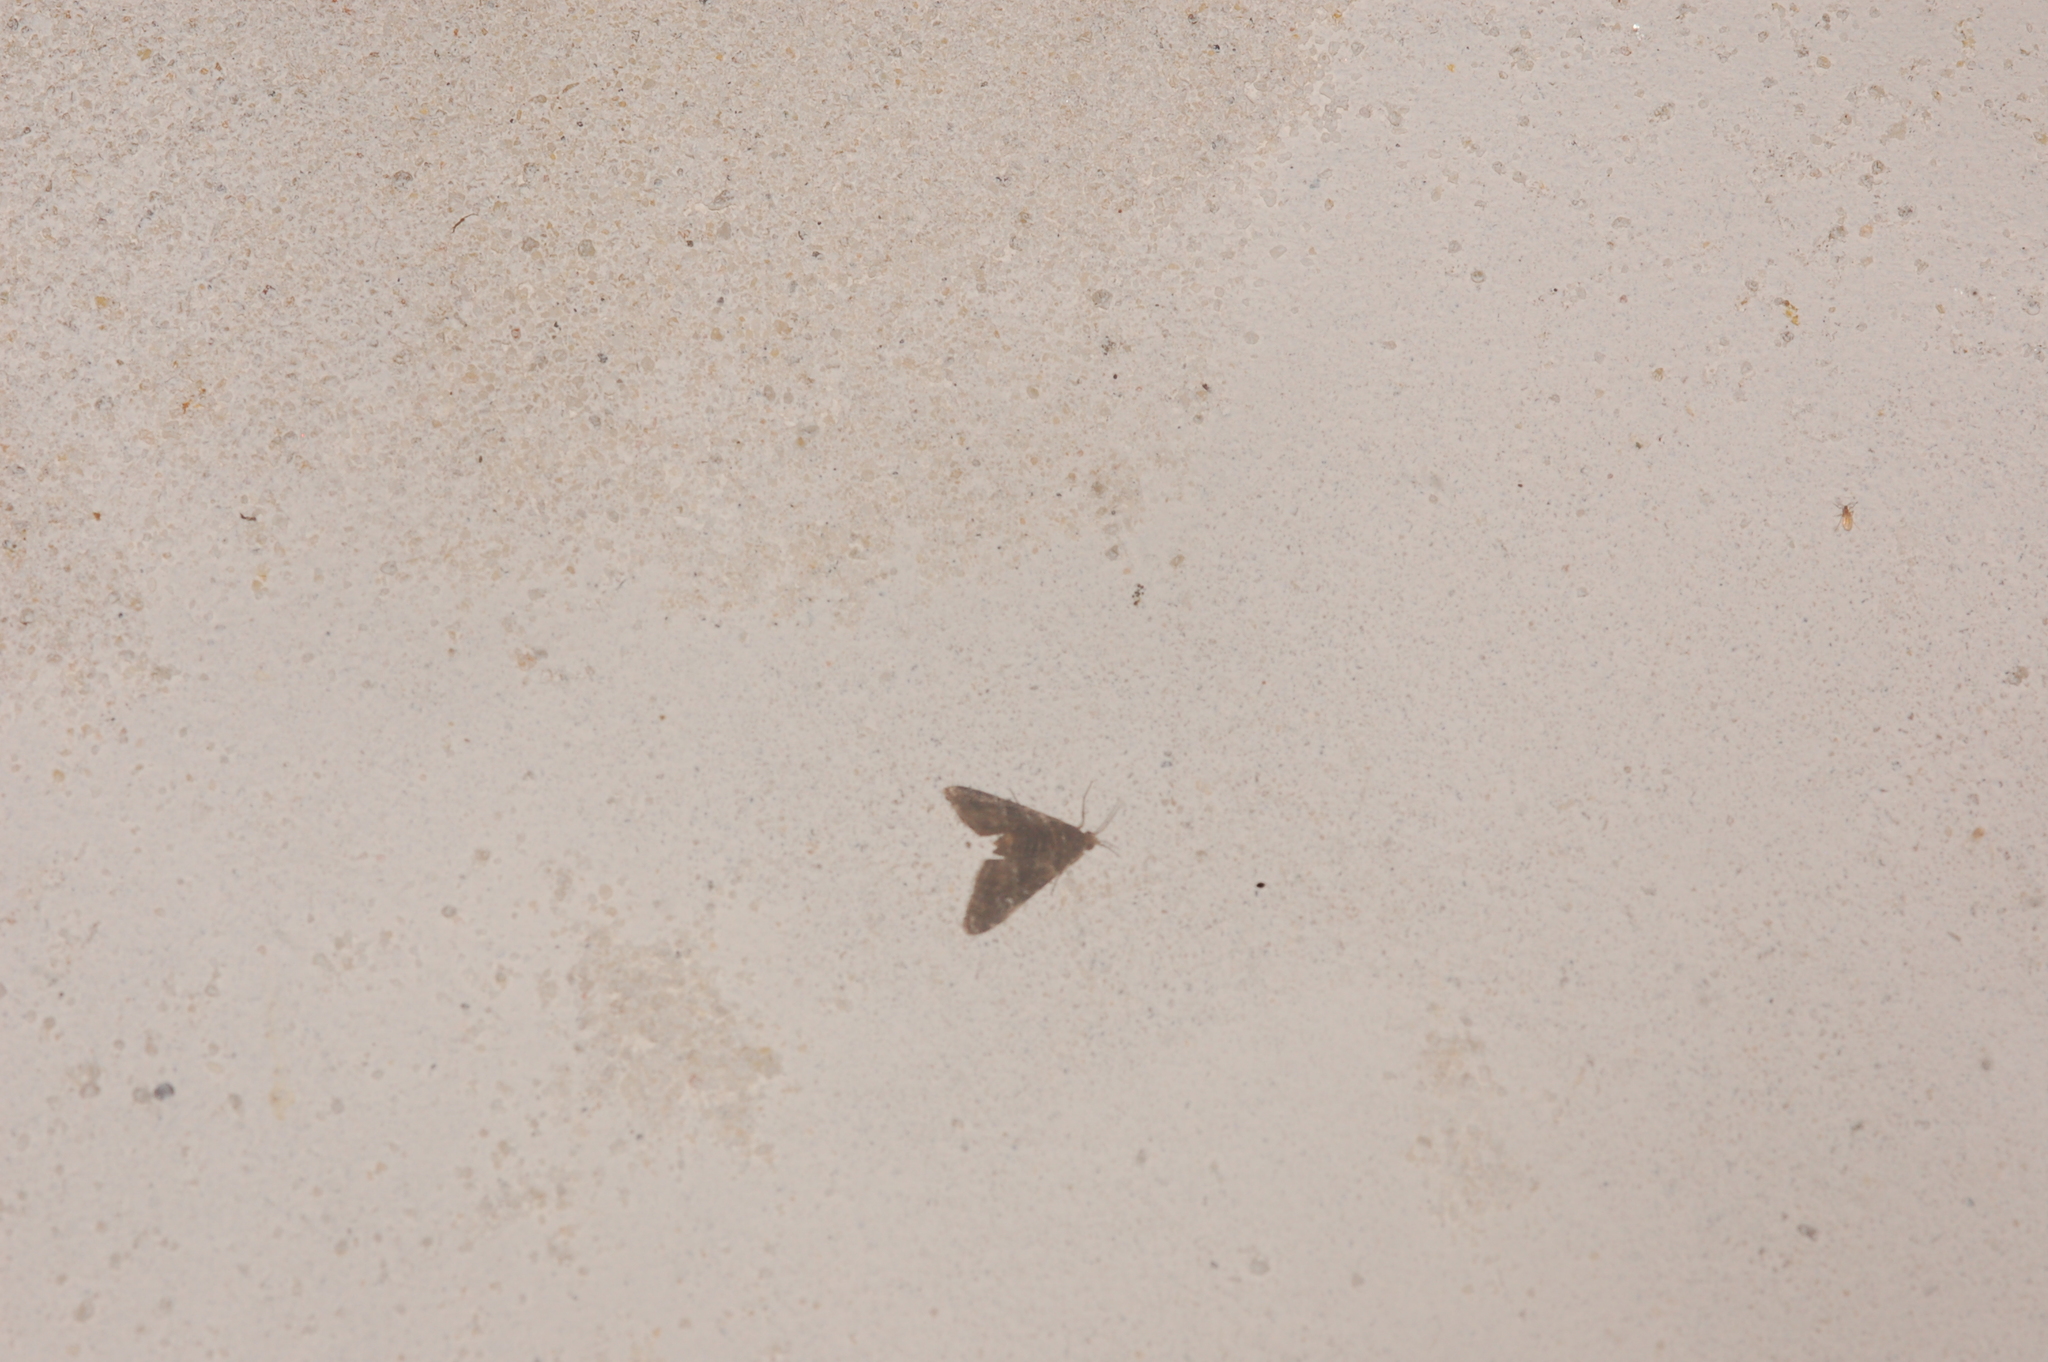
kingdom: Animalia
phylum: Arthropoda
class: Insecta
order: Lepidoptera
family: Crambidae
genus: Elophila
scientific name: Elophila obliteralis
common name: Waterlily leafcutter moth
